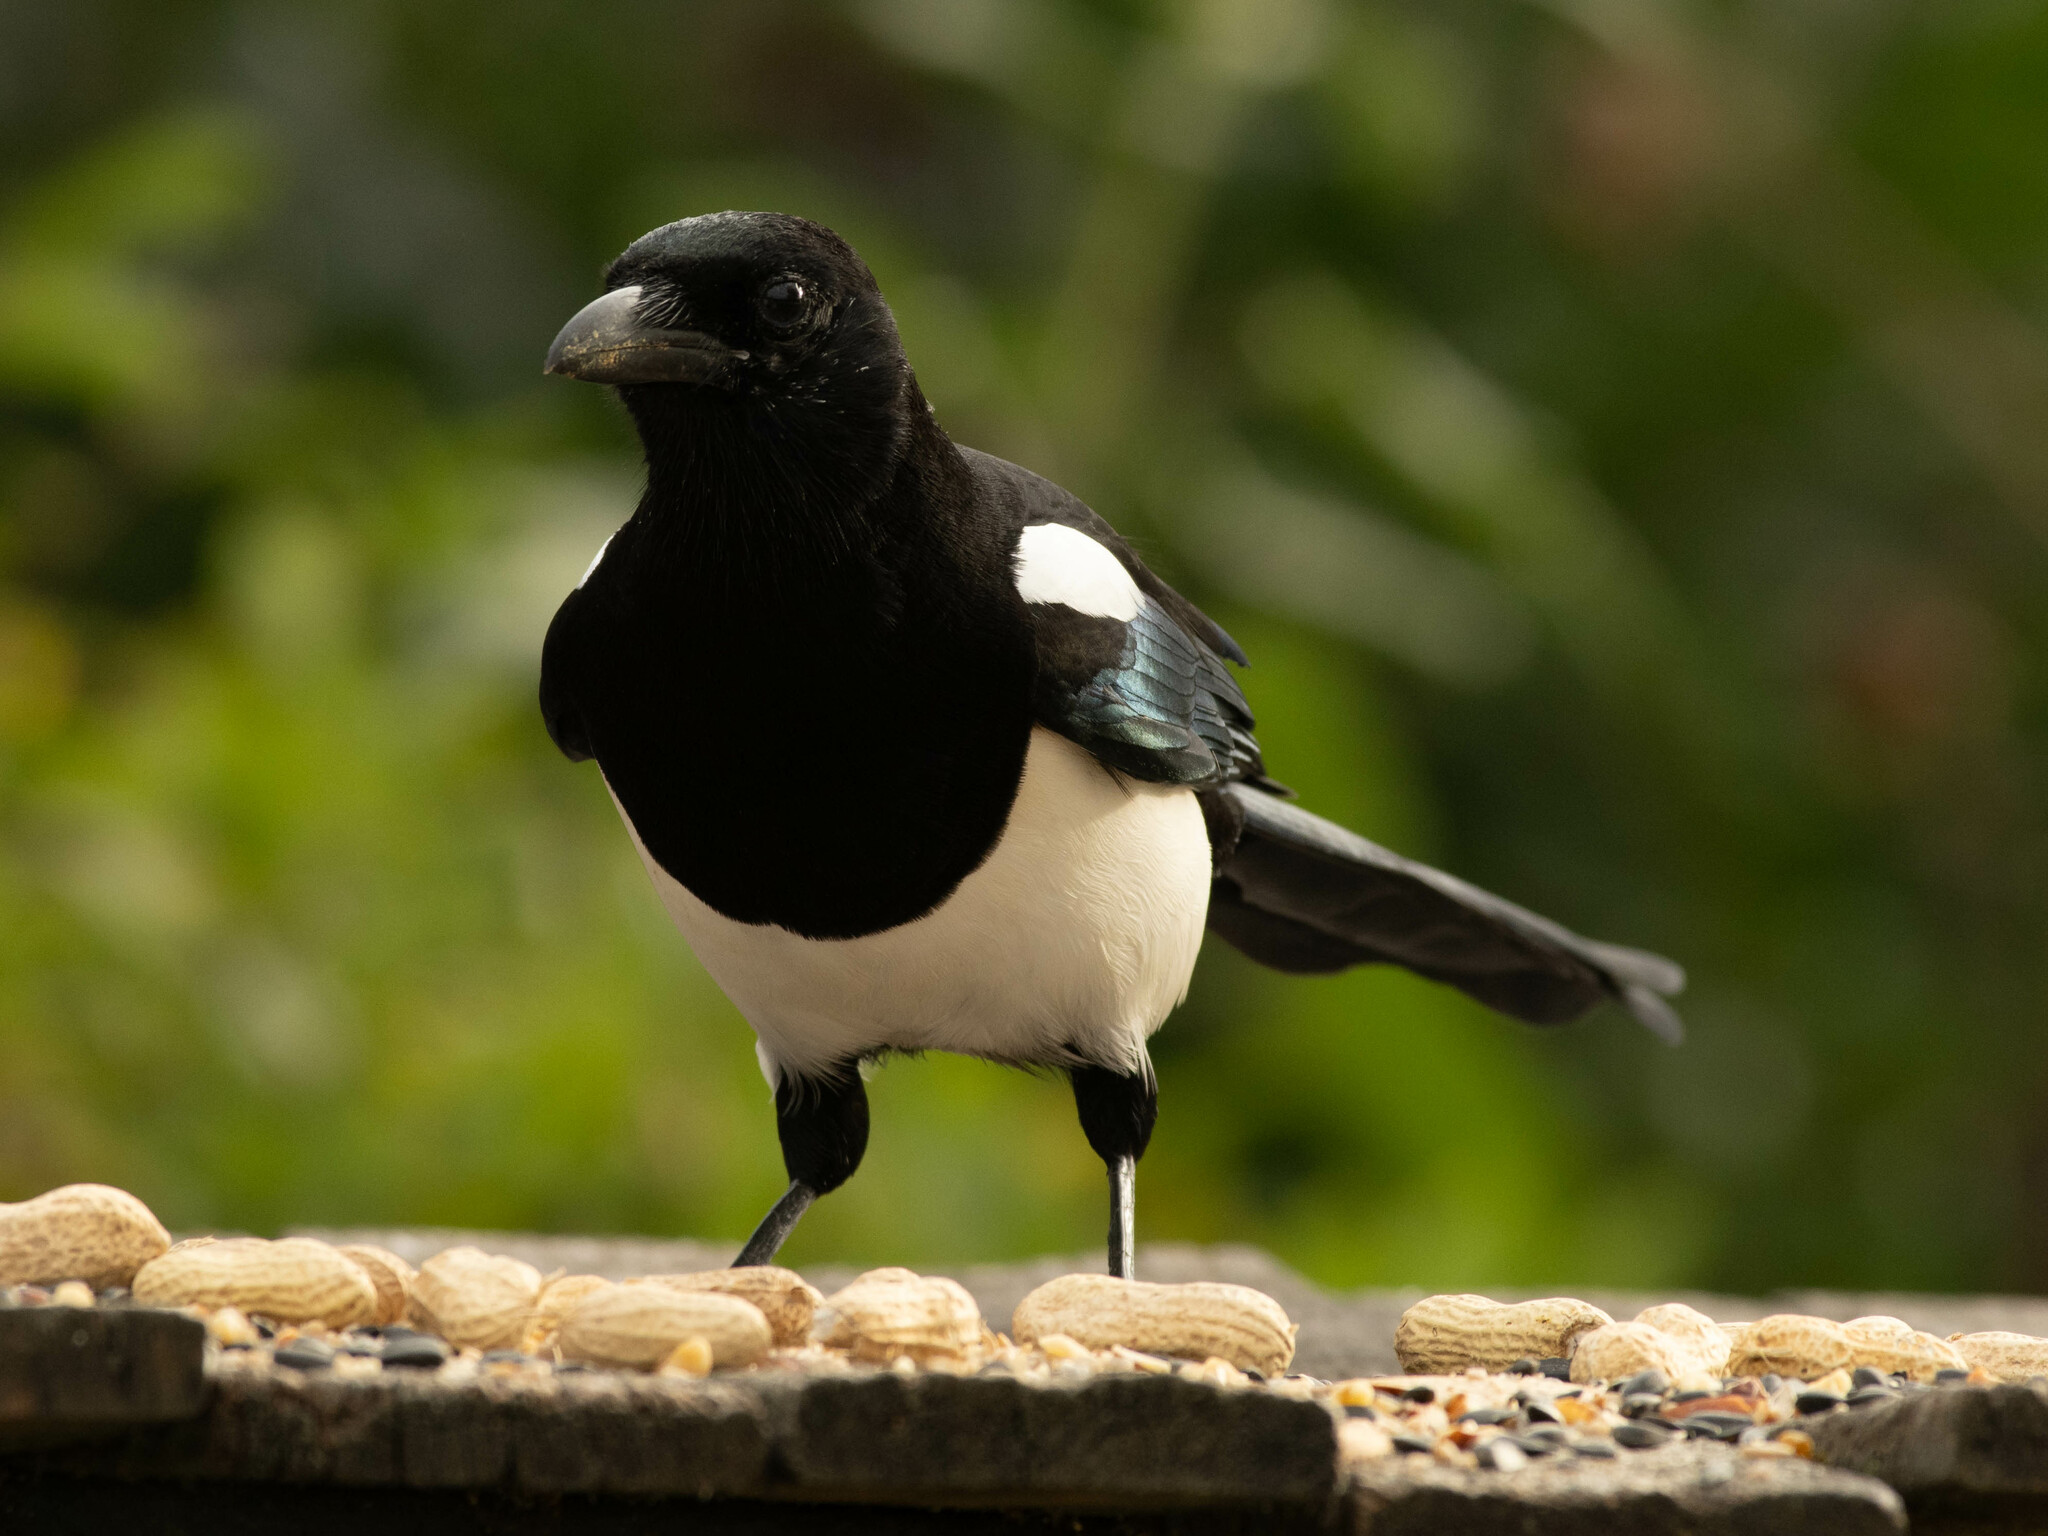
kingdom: Animalia
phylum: Chordata
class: Aves
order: Passeriformes
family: Corvidae
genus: Pica
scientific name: Pica hudsonia
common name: Black-billed magpie
